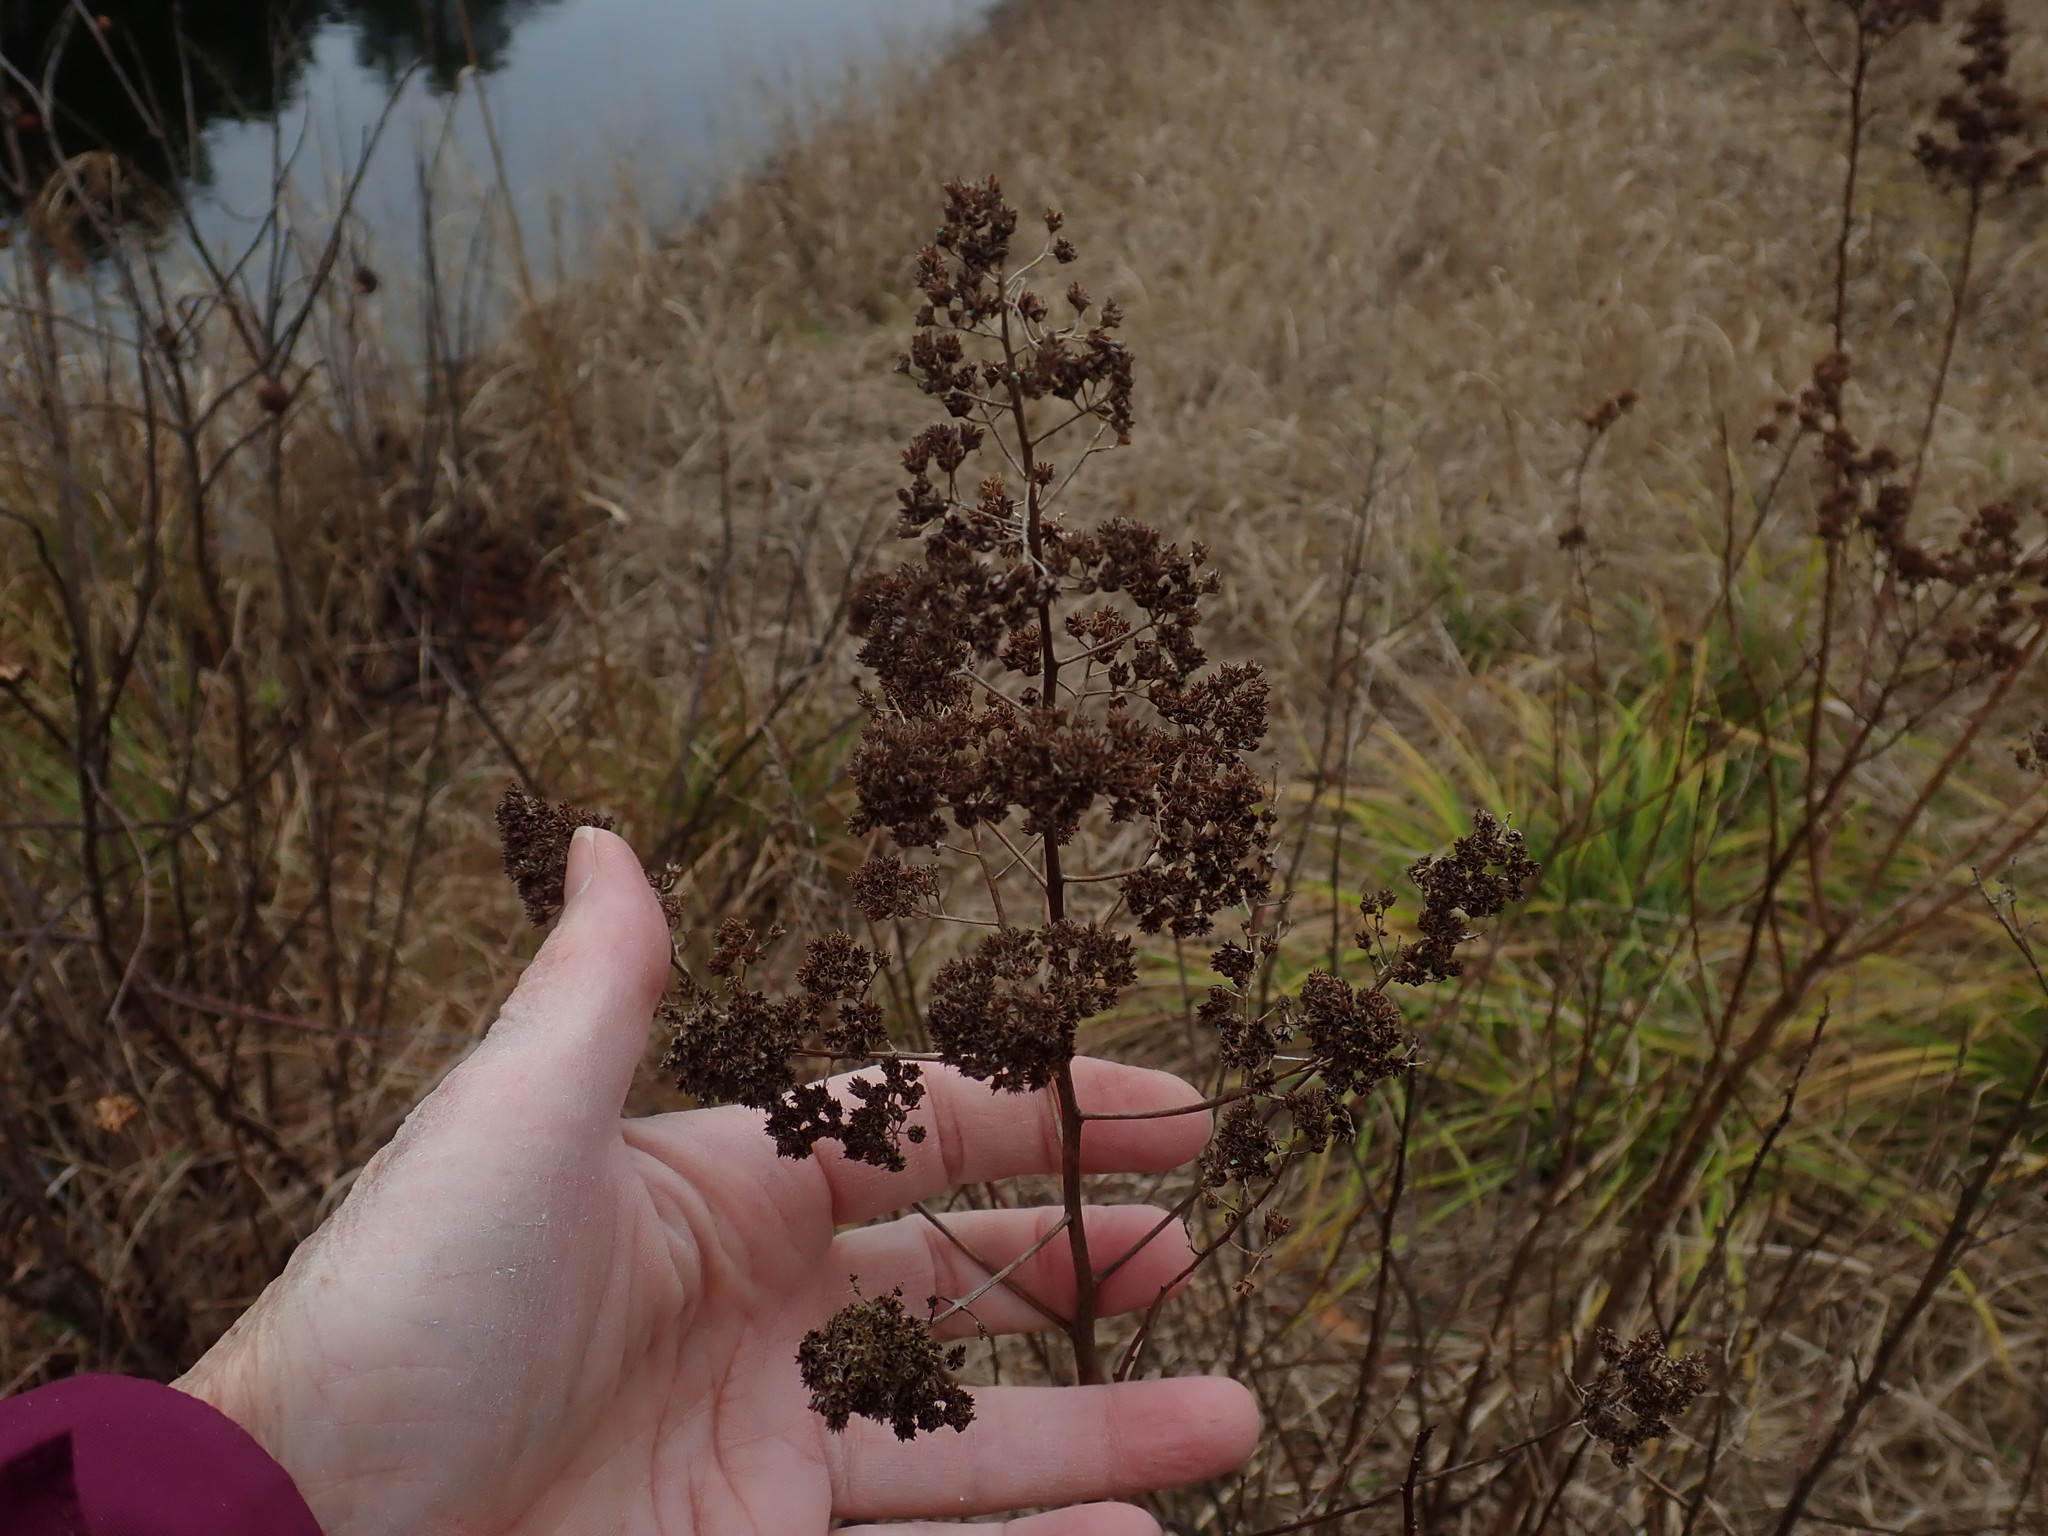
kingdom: Plantae
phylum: Tracheophyta
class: Magnoliopsida
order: Rosales
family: Rosaceae
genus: Spiraea
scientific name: Spiraea alba
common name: Pale bridewort
